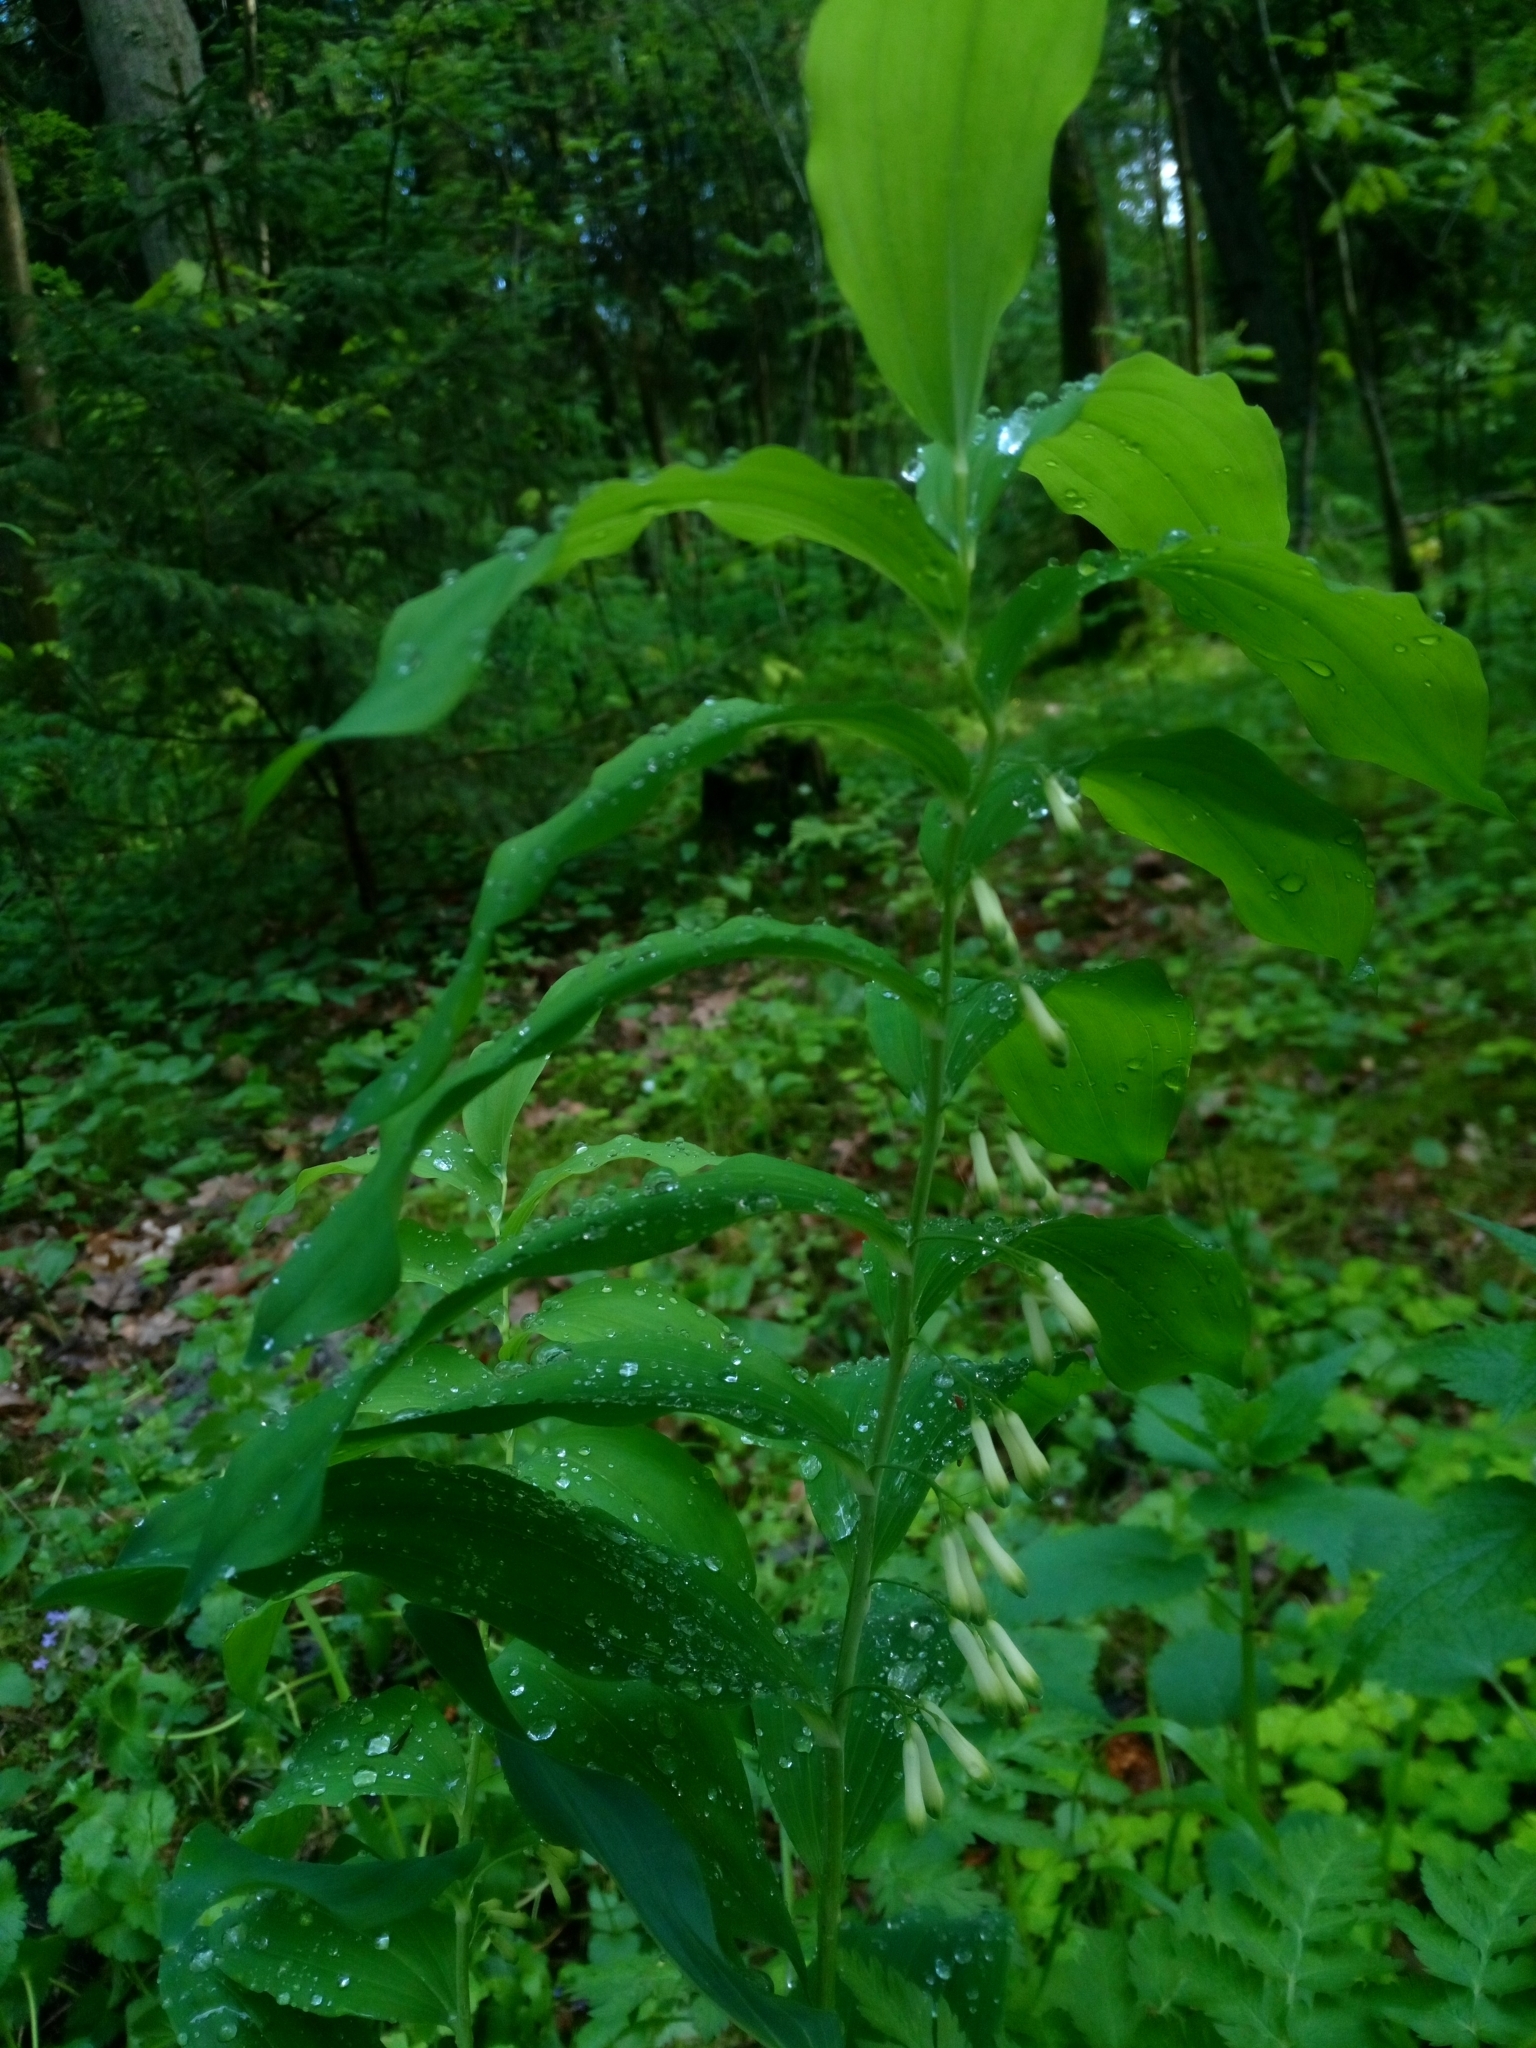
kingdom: Plantae
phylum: Tracheophyta
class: Liliopsida
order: Asparagales
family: Asparagaceae
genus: Polygonatum
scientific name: Polygonatum multiflorum
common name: Solomon's-seal
